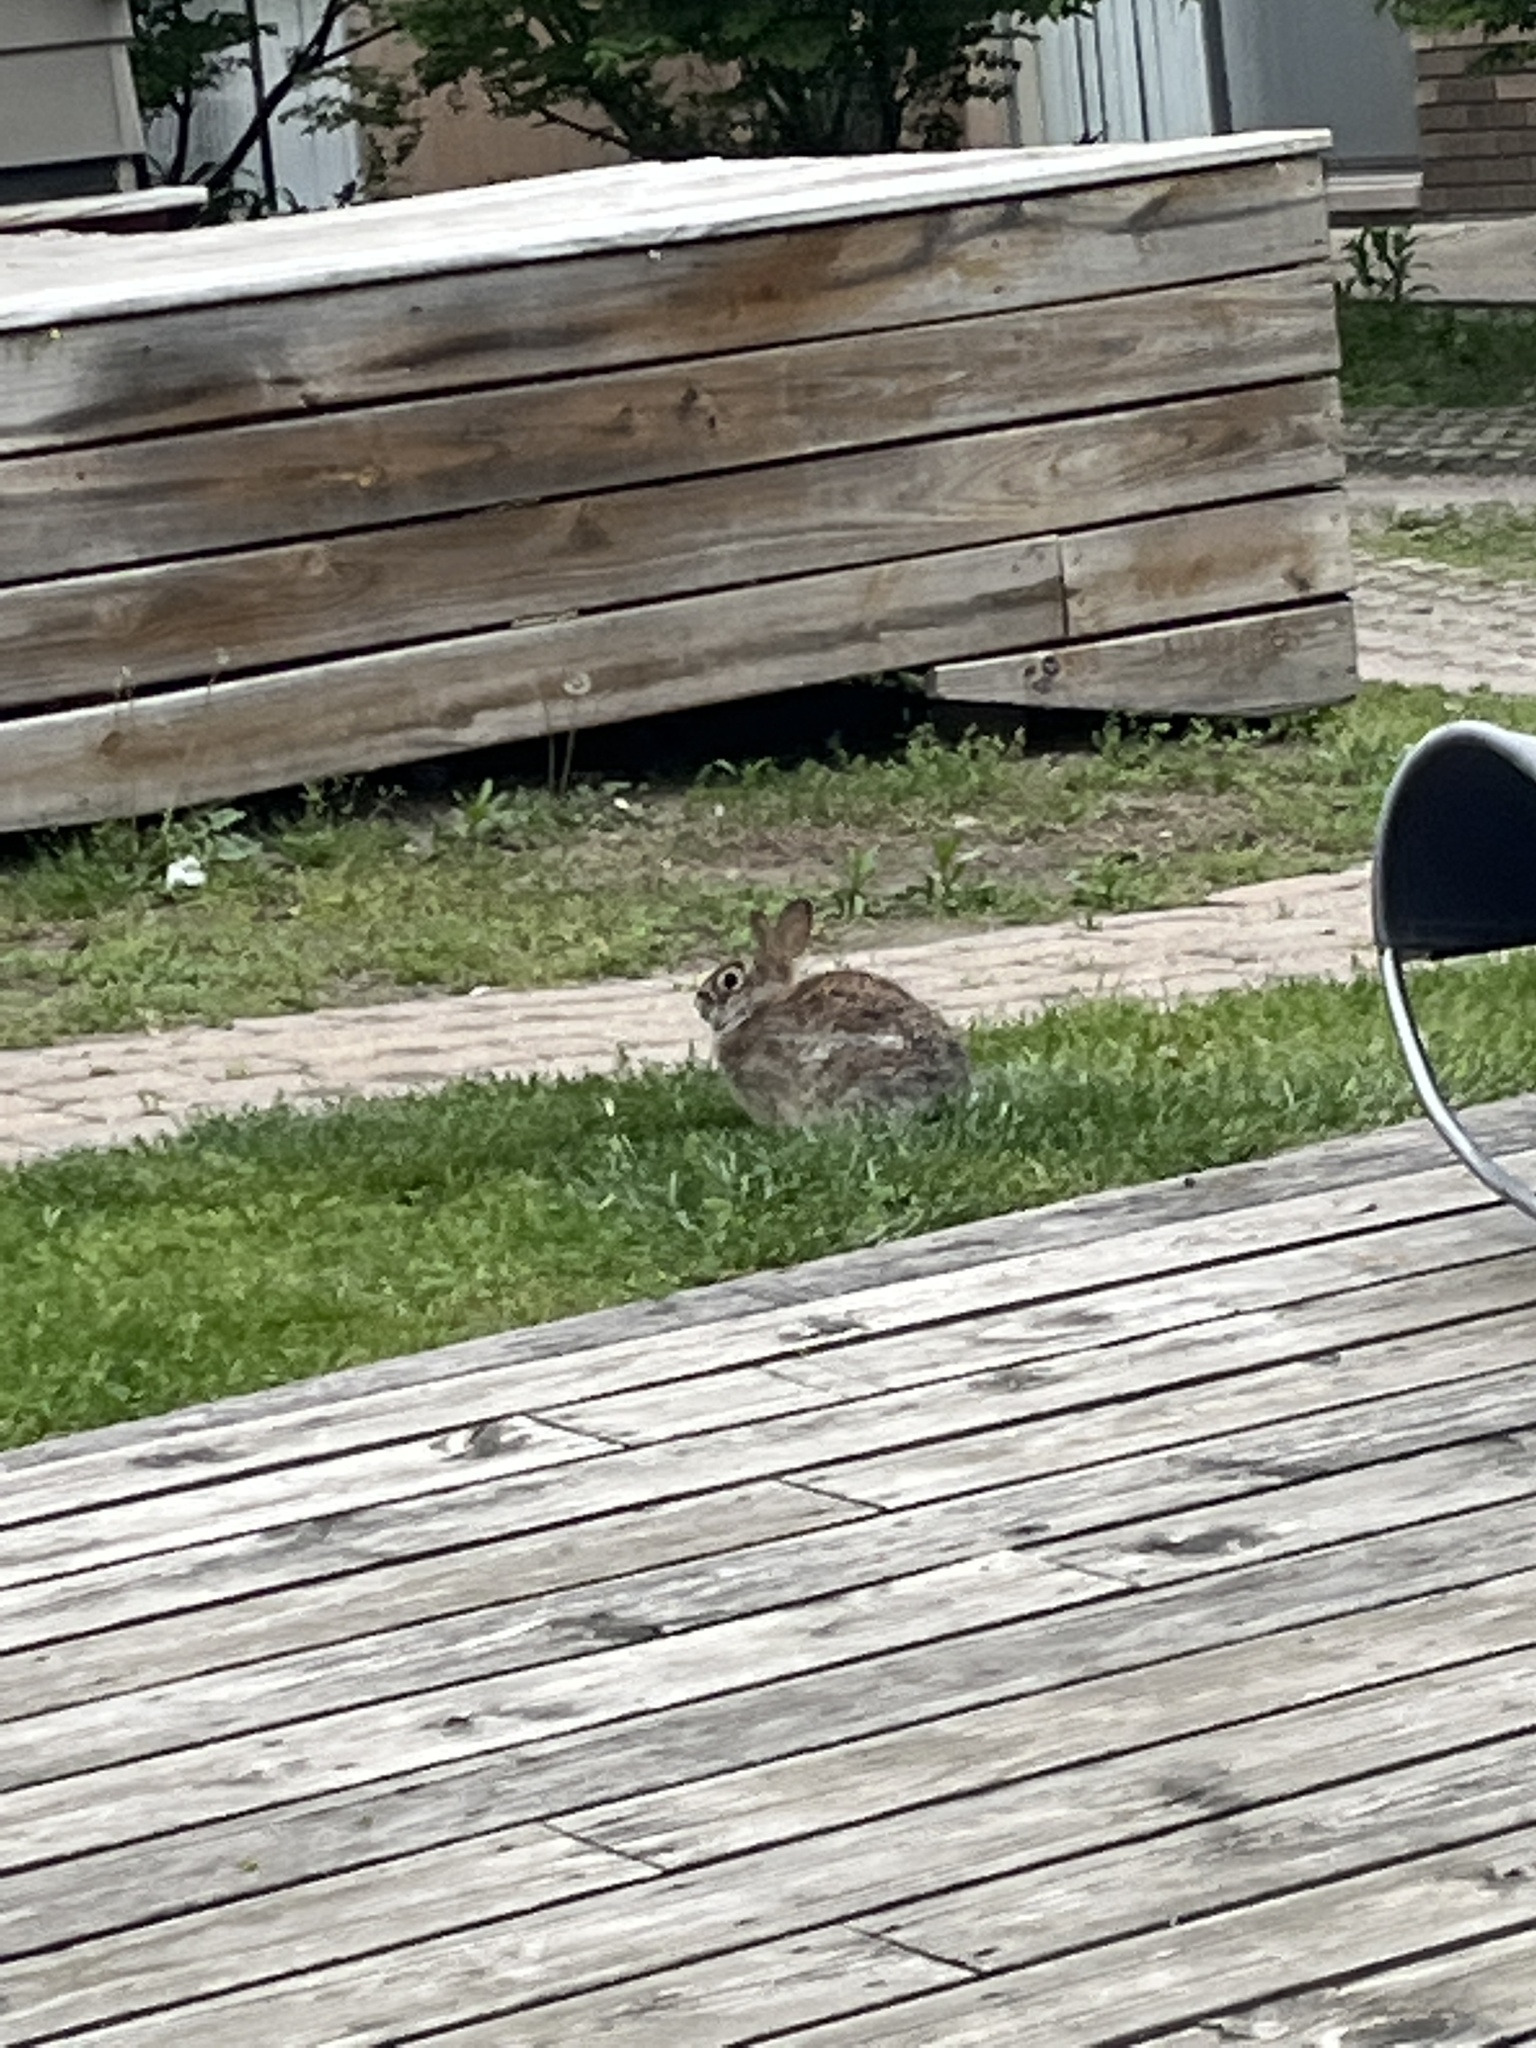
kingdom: Animalia
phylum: Chordata
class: Mammalia
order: Lagomorpha
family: Leporidae
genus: Sylvilagus
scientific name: Sylvilagus floridanus
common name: Eastern cottontail
